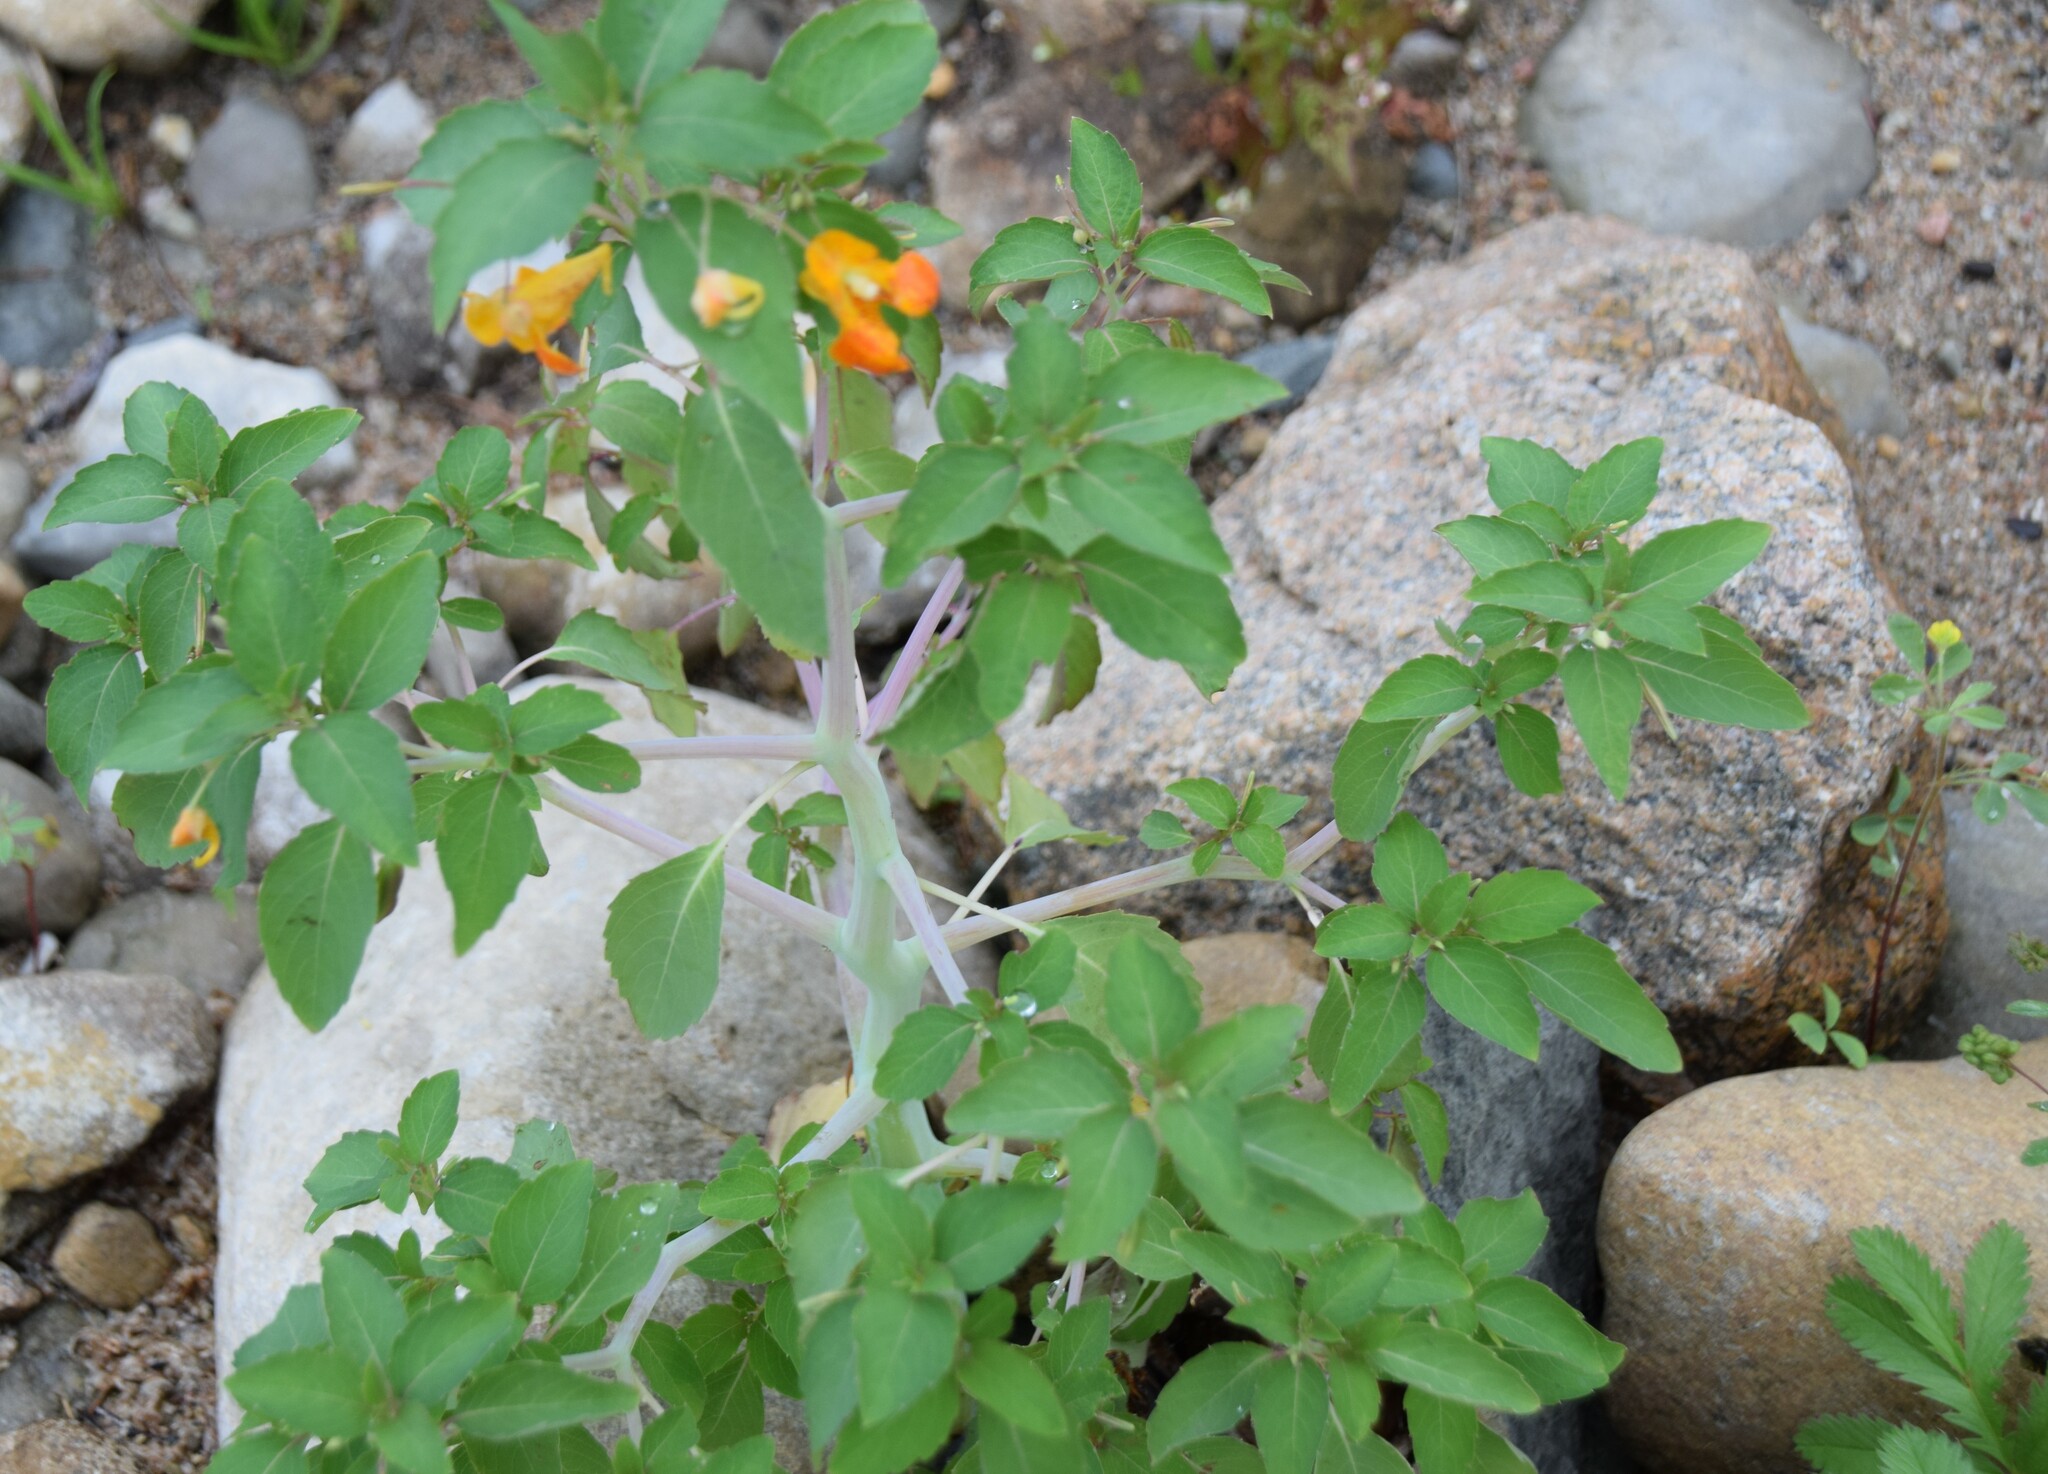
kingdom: Plantae
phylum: Tracheophyta
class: Magnoliopsida
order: Ericales
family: Balsaminaceae
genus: Impatiens
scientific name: Impatiens capensis
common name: Orange balsam
